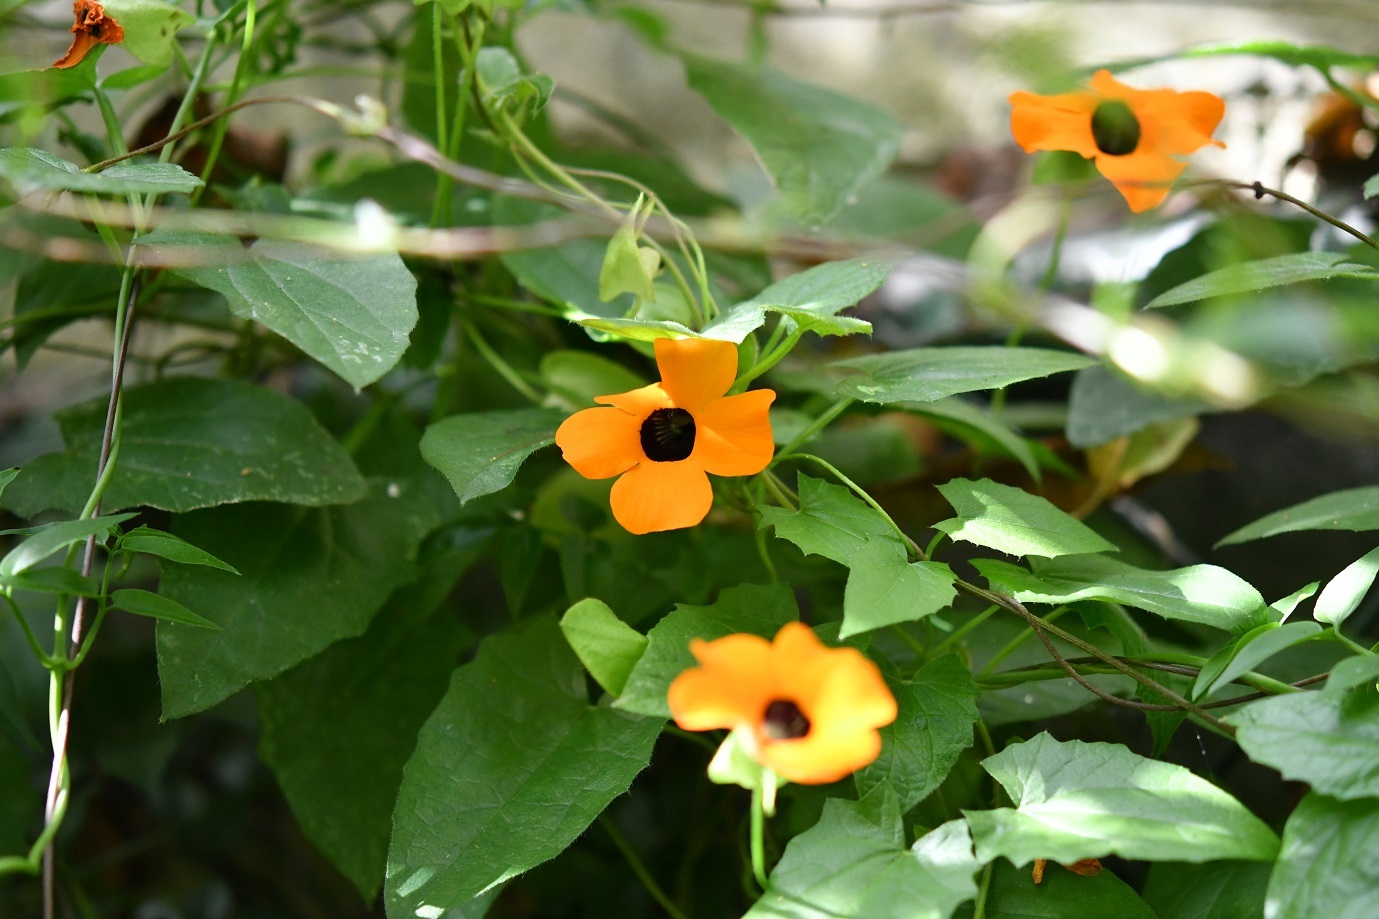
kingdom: Plantae
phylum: Tracheophyta
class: Magnoliopsida
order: Lamiales
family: Acanthaceae
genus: Thunbergia
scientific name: Thunbergia alata
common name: Blackeyed susan vine
